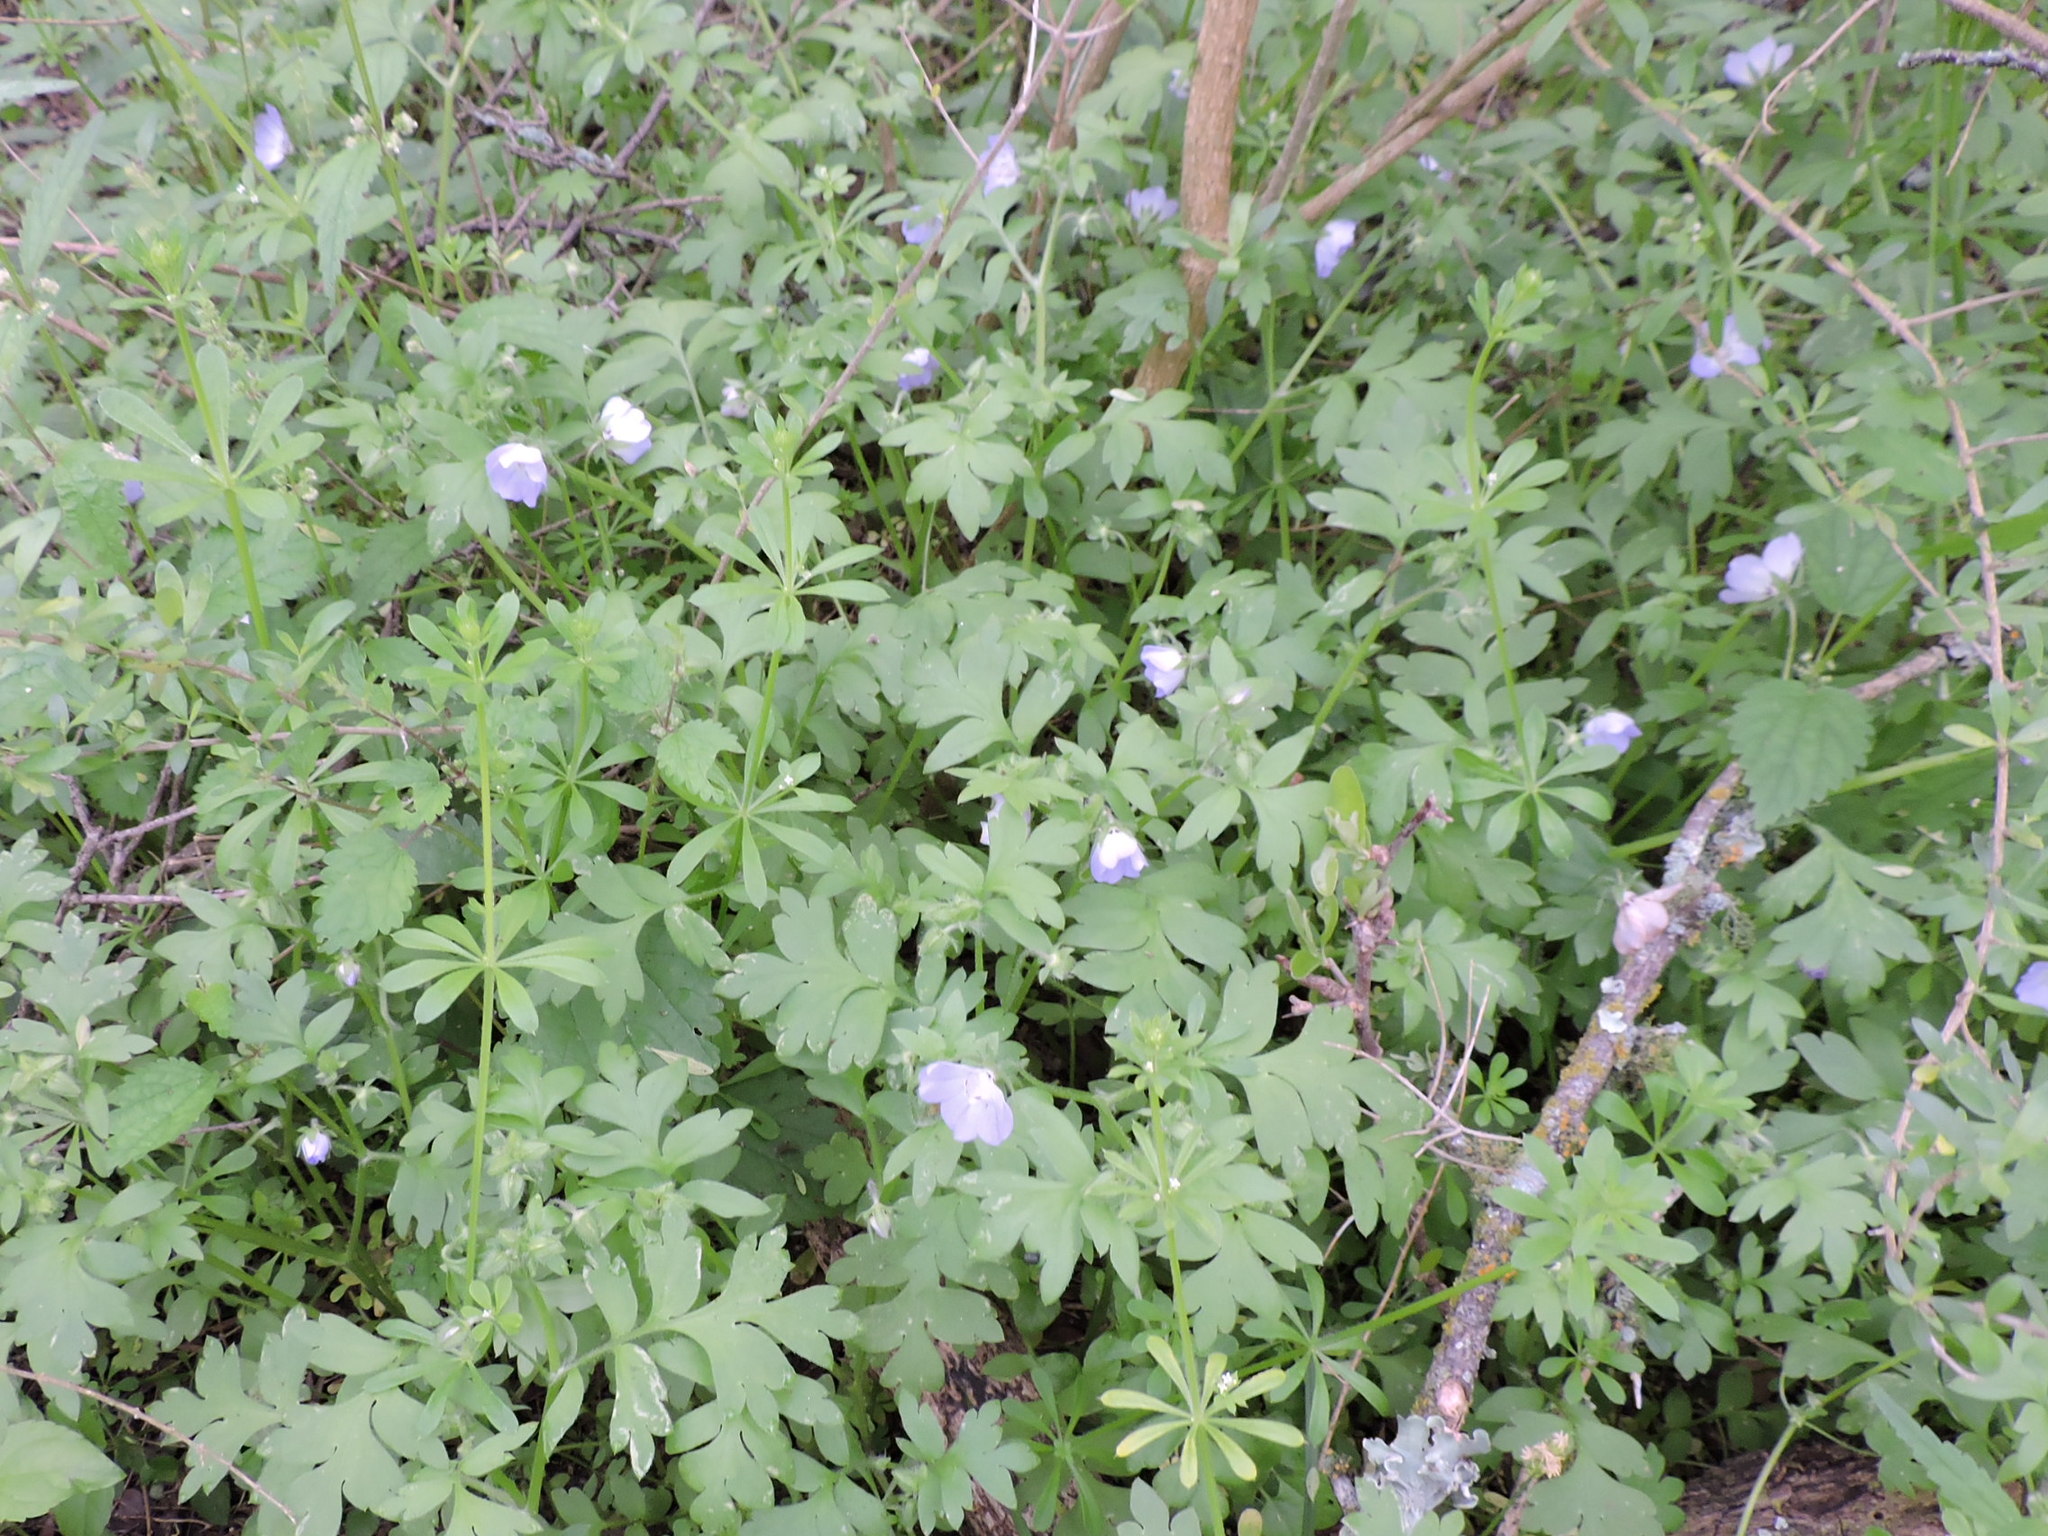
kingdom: Plantae
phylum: Tracheophyta
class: Magnoliopsida
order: Boraginales
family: Hydrophyllaceae
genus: Nemophila
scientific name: Nemophila phacelioides
